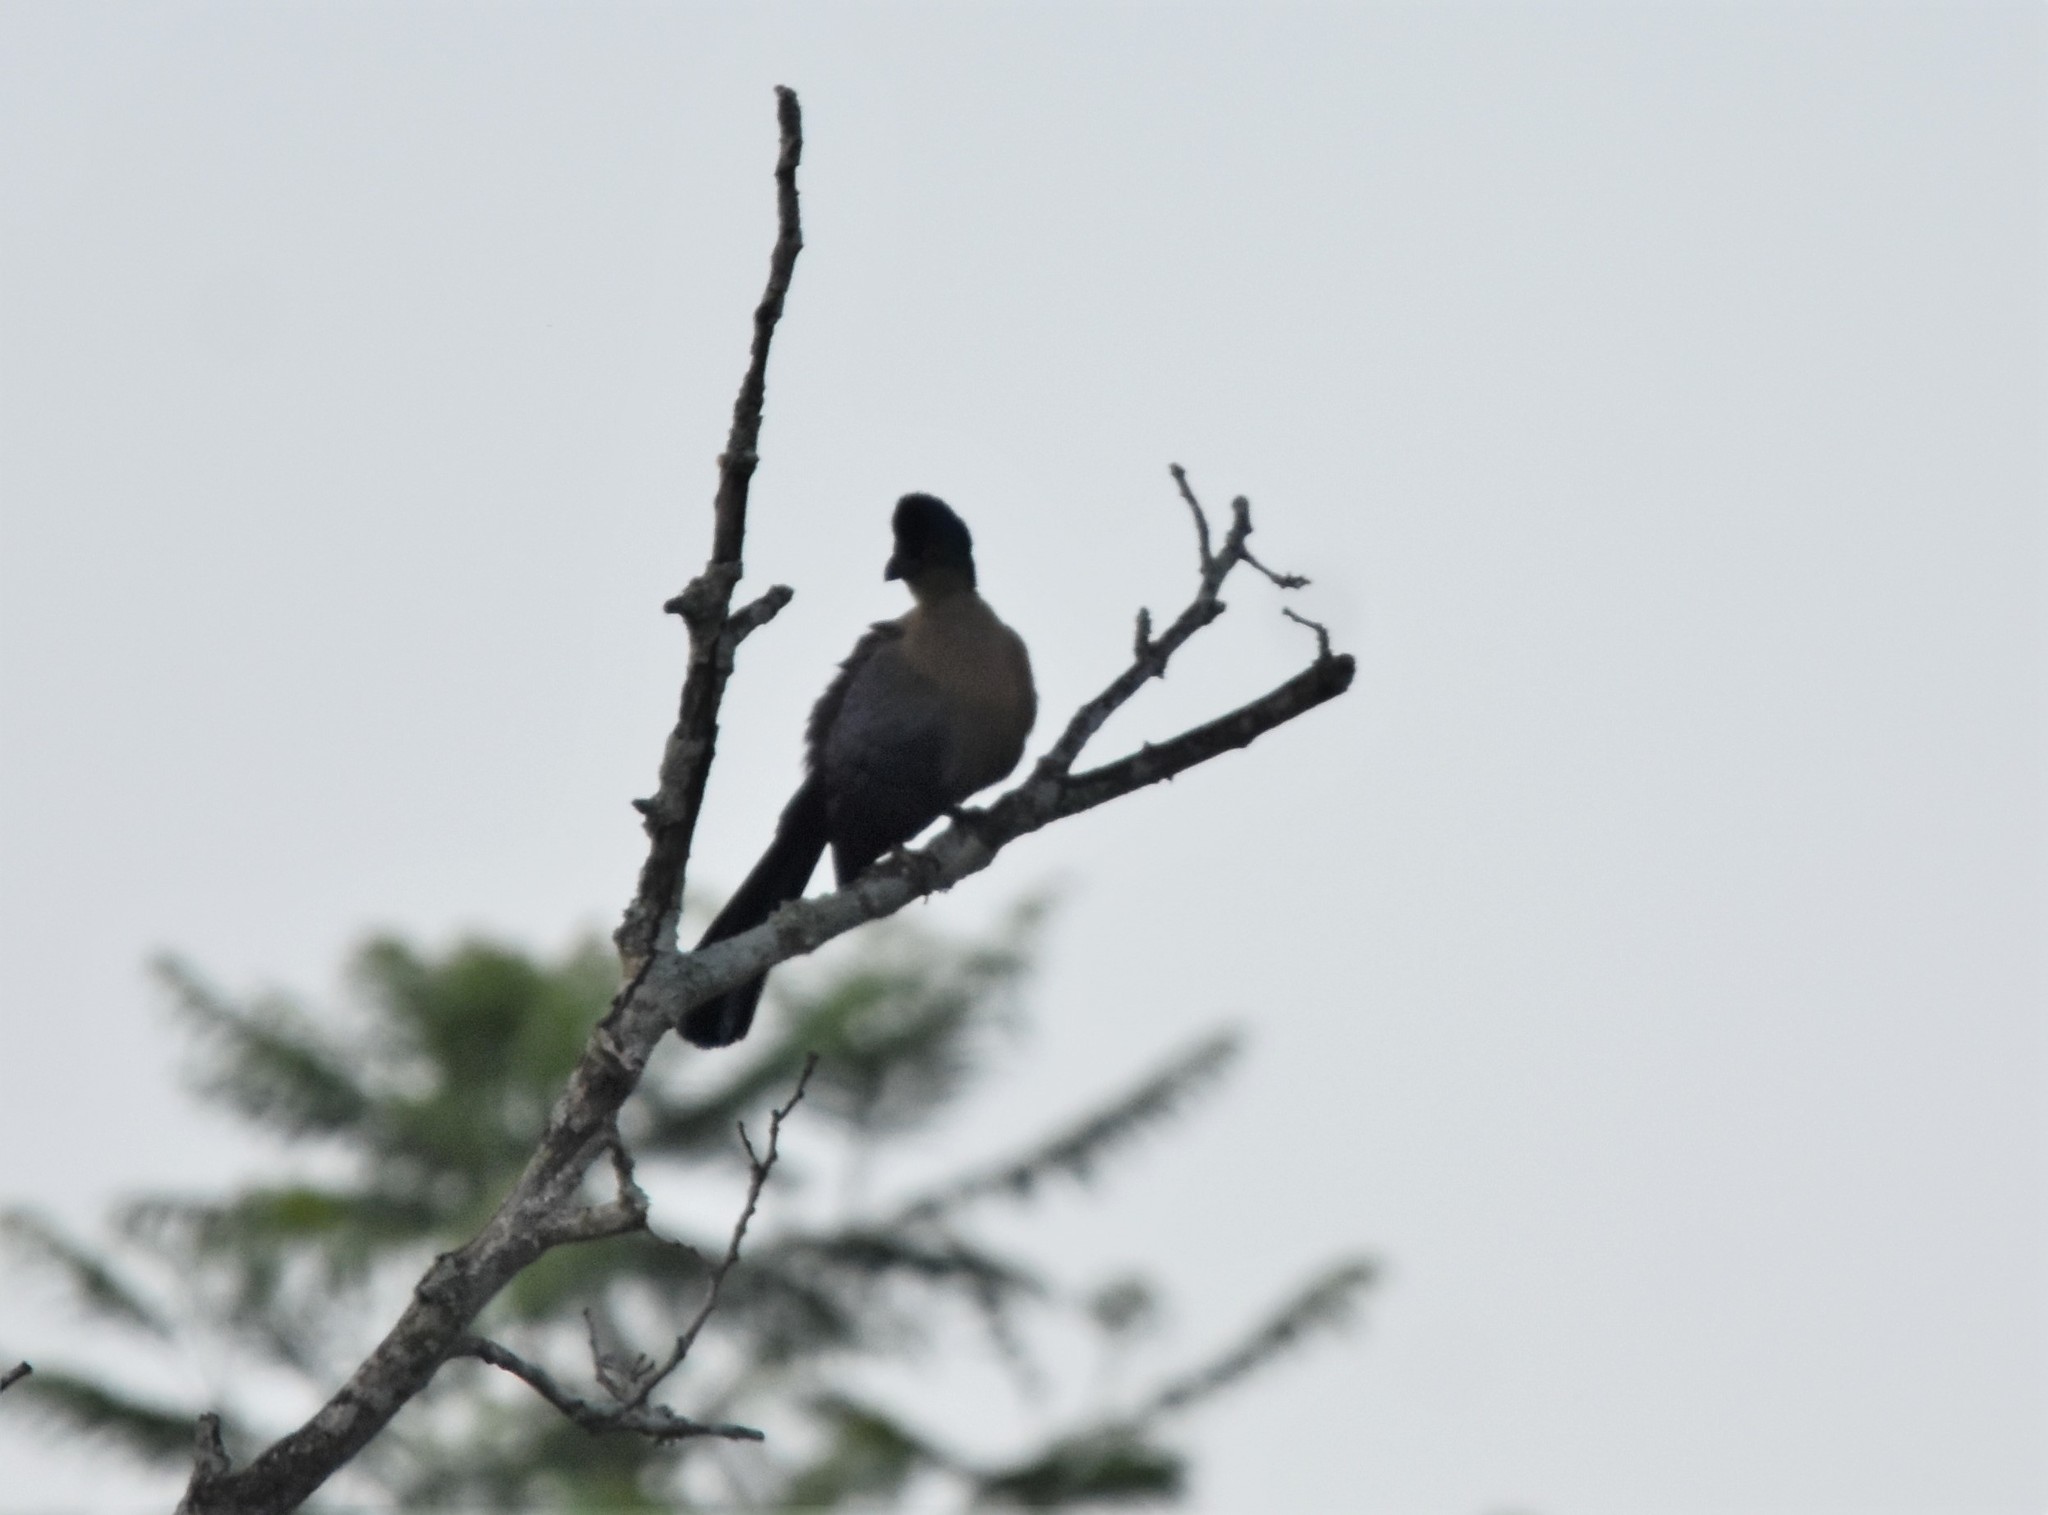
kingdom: Animalia
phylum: Chordata
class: Aves
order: Musophagiformes
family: Musophagidae
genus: Tauraco
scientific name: Tauraco porphyreolophus
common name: Purple-crested turaco
